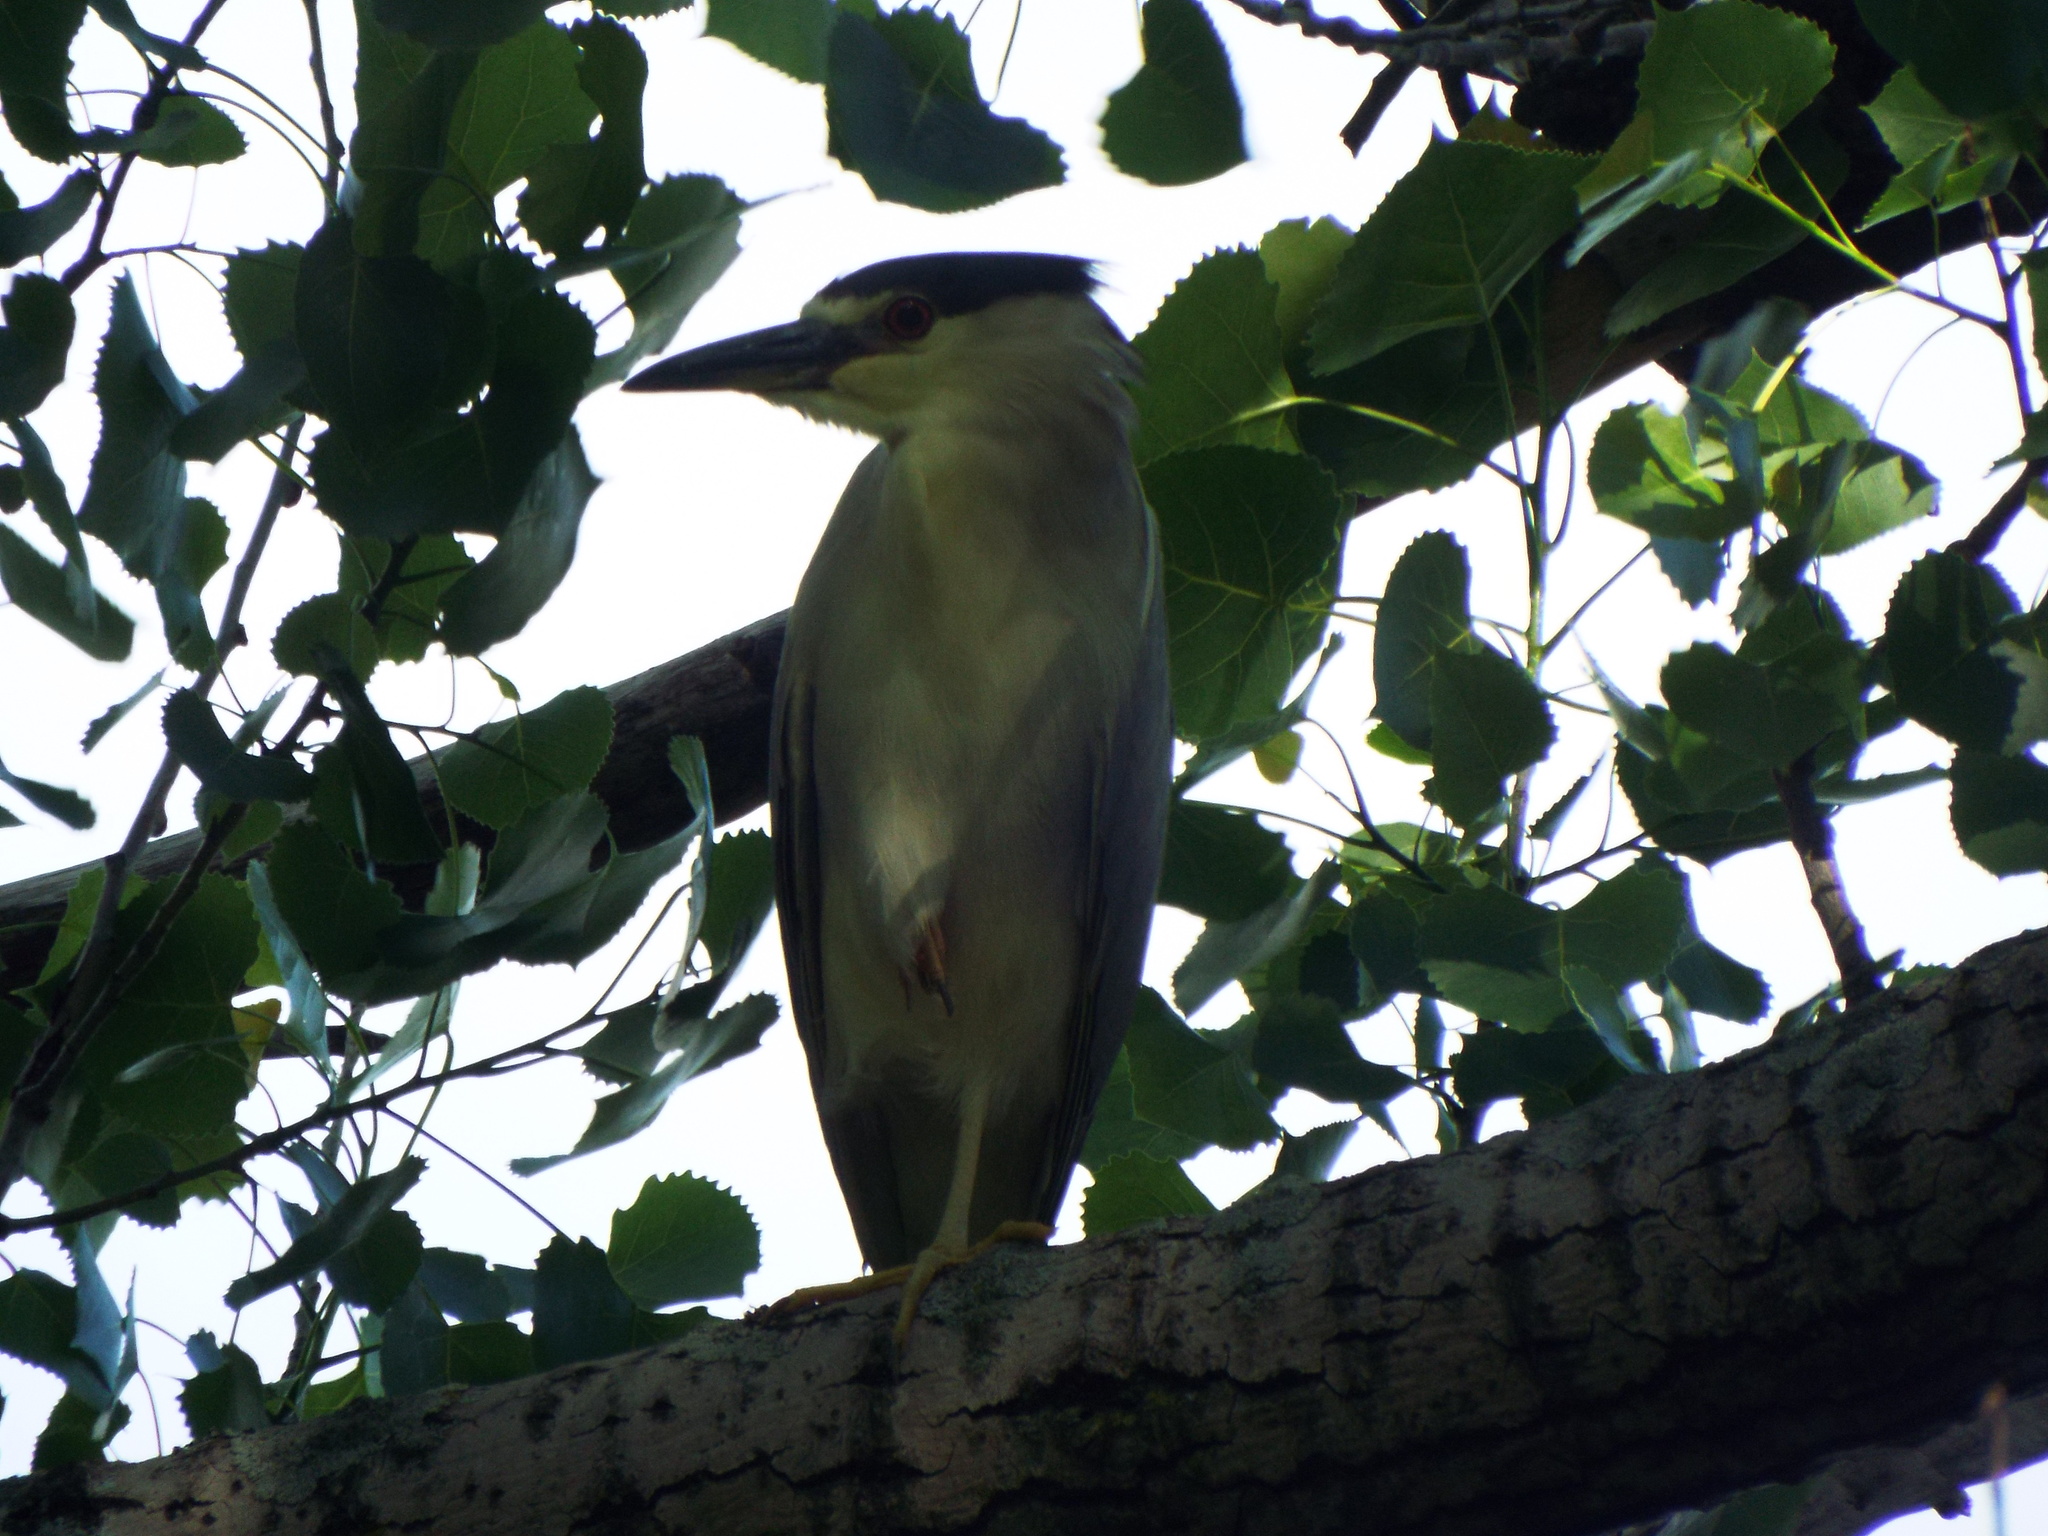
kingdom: Animalia
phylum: Chordata
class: Aves
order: Pelecaniformes
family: Ardeidae
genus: Nycticorax
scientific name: Nycticorax nycticorax
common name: Black-crowned night heron
